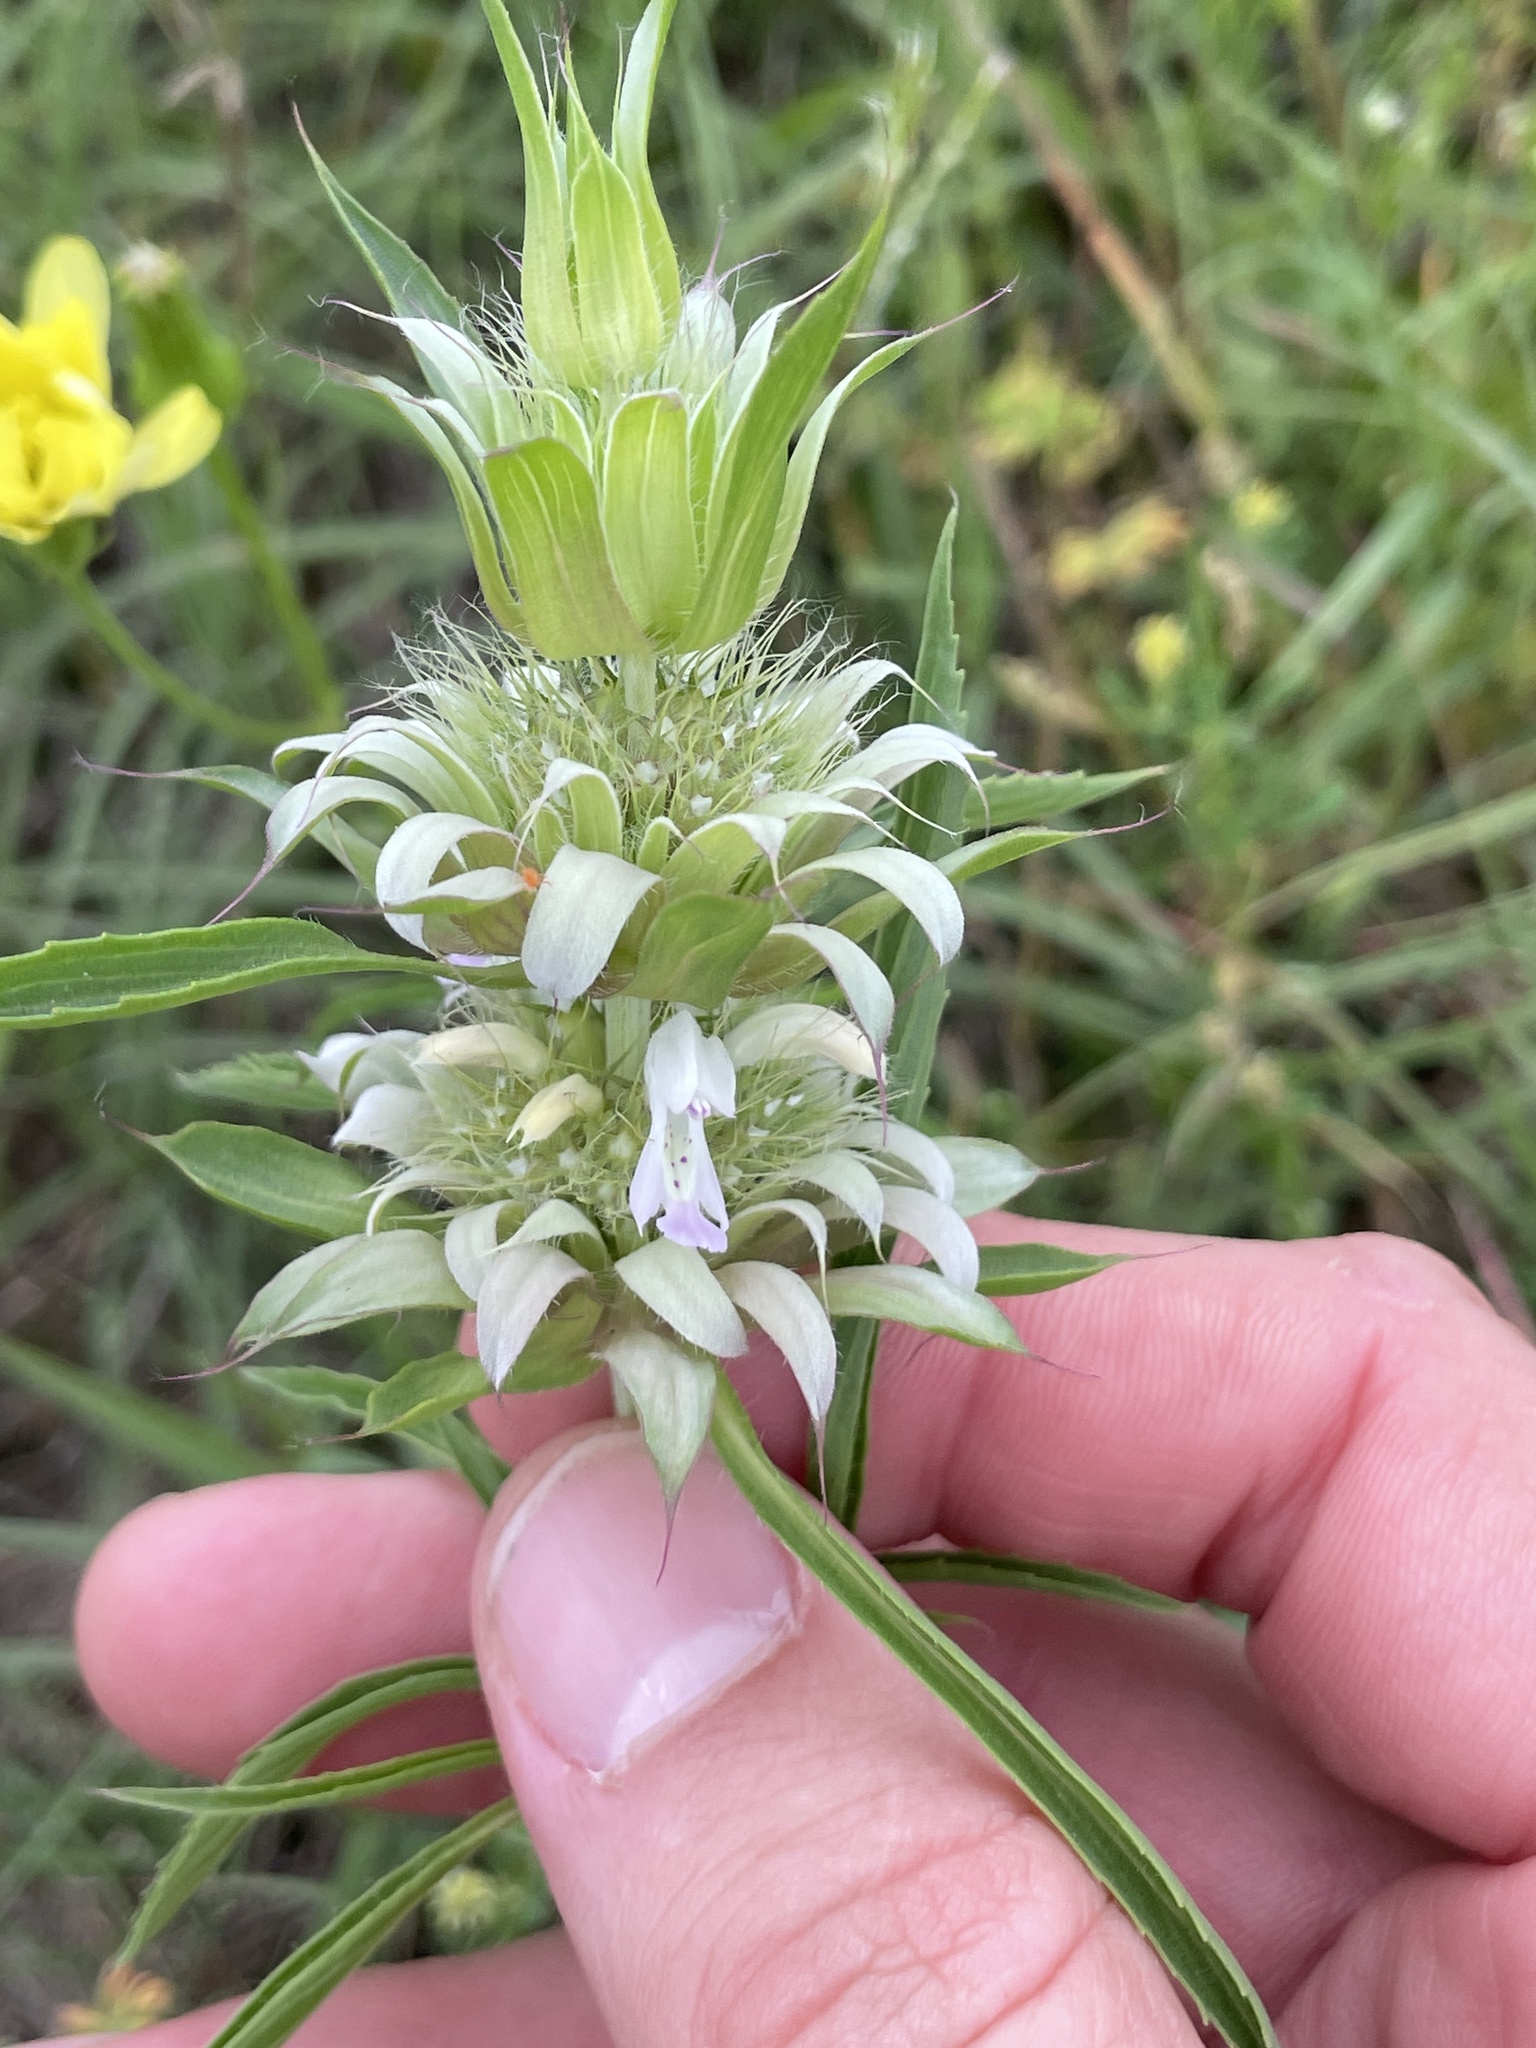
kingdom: Plantae
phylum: Tracheophyta
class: Magnoliopsida
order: Lamiales
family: Lamiaceae
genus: Monarda
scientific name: Monarda citriodora
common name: Lemon beebalm
